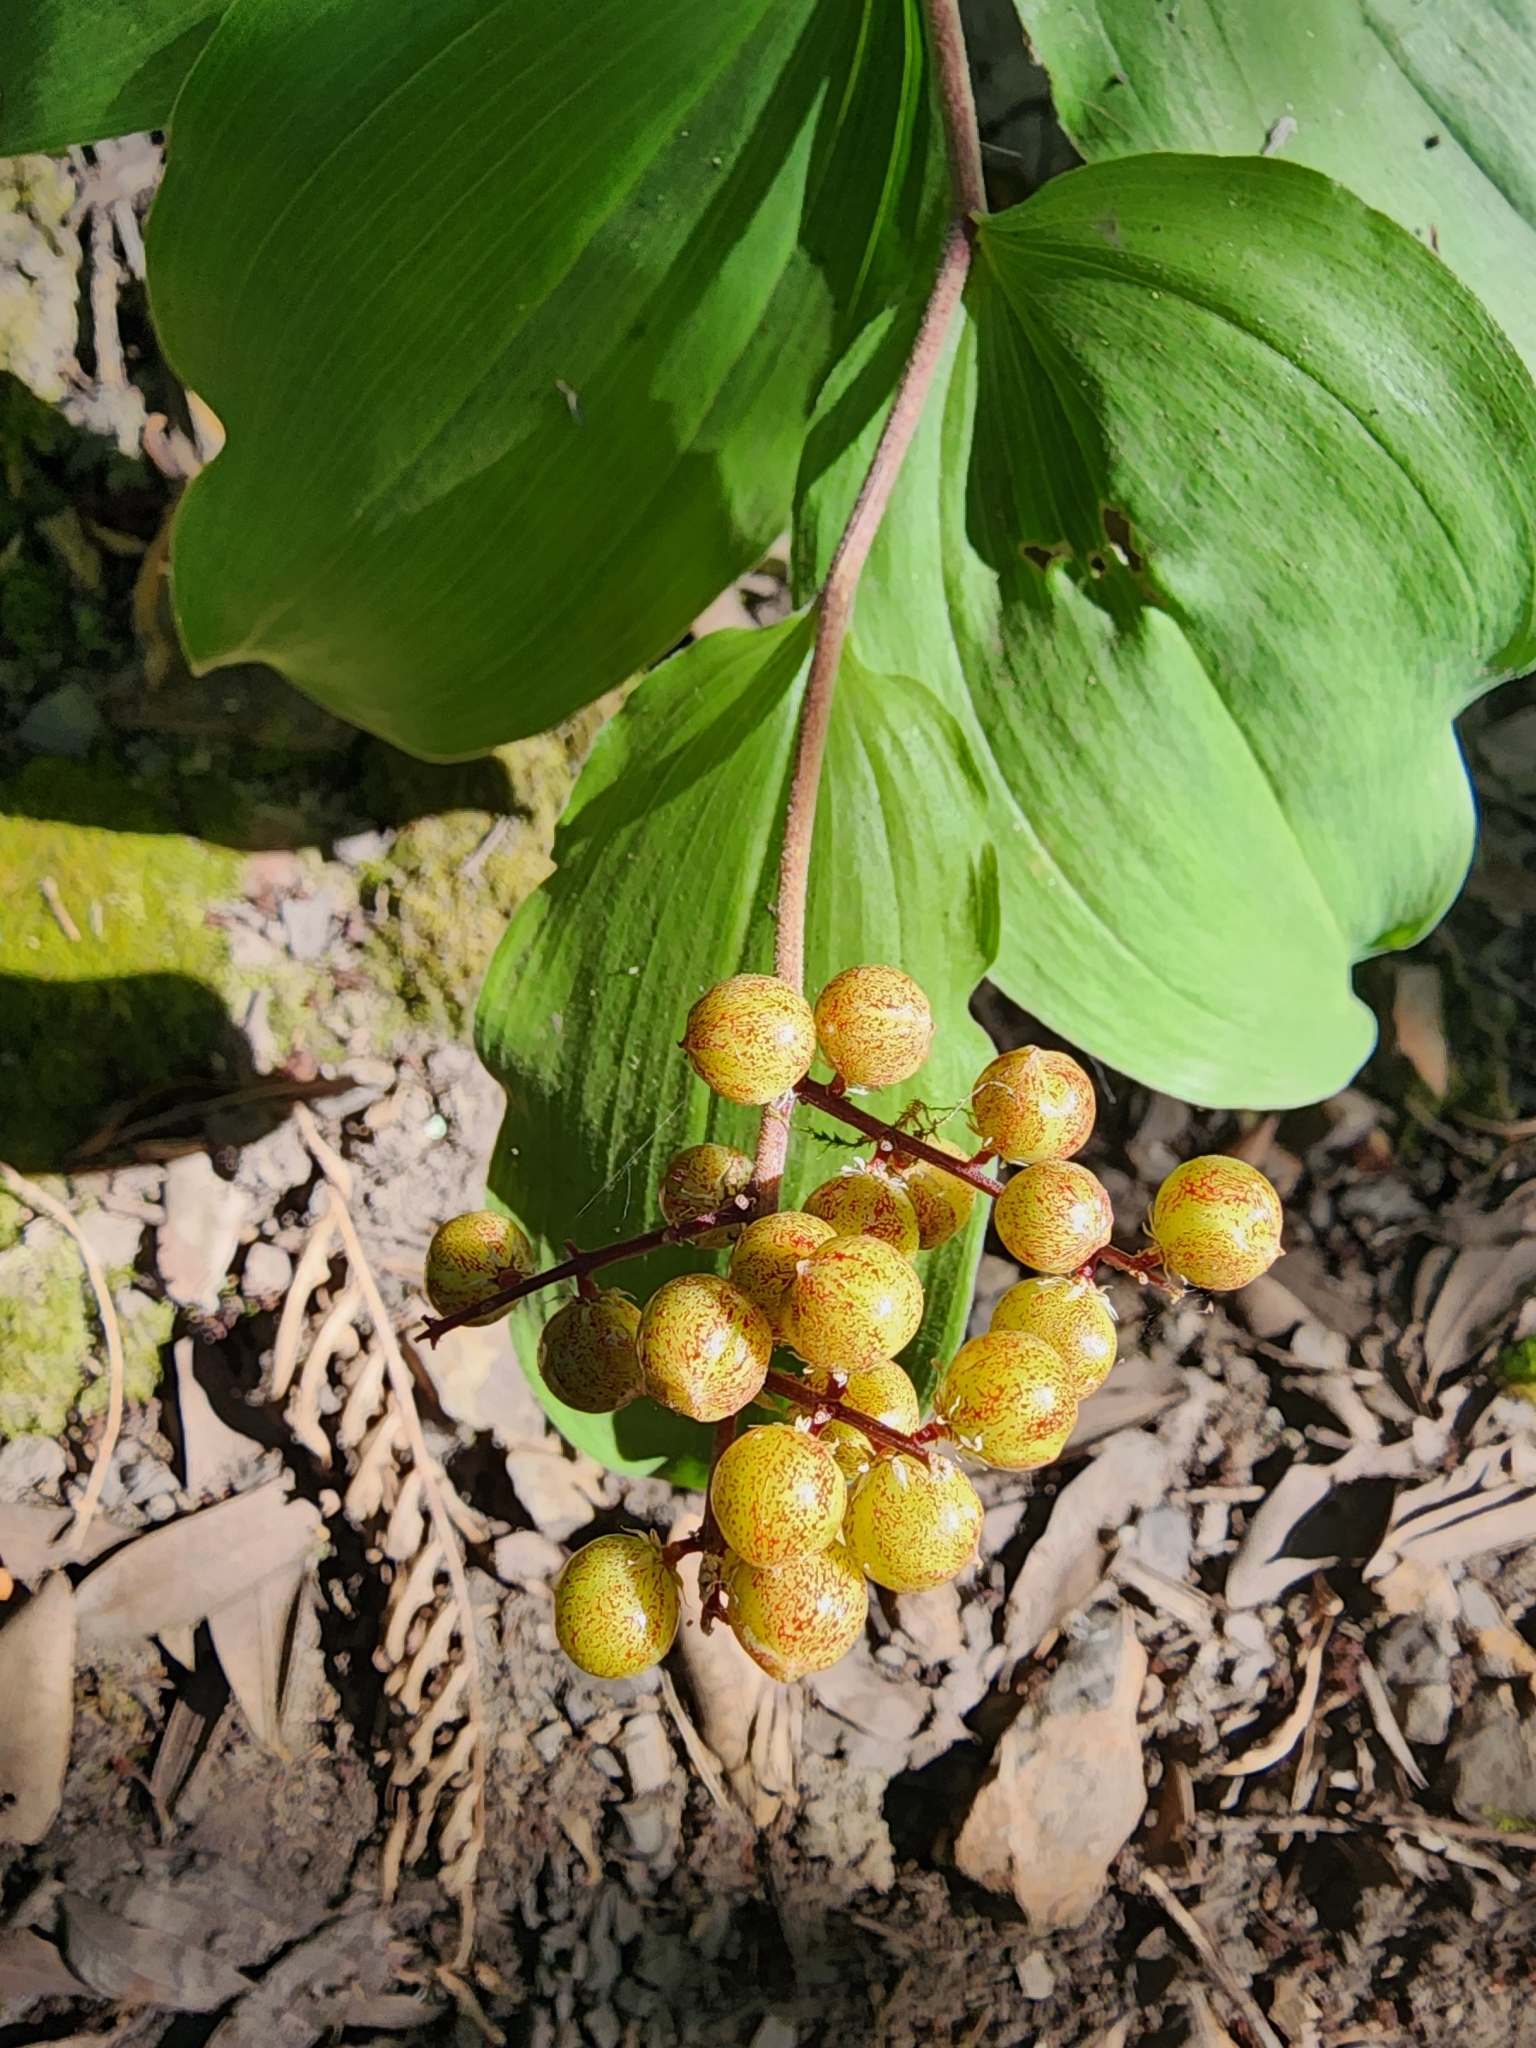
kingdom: Plantae
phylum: Tracheophyta
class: Liliopsida
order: Asparagales
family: Asparagaceae
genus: Maianthemum
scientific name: Maianthemum racemosum
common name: False spikenard
